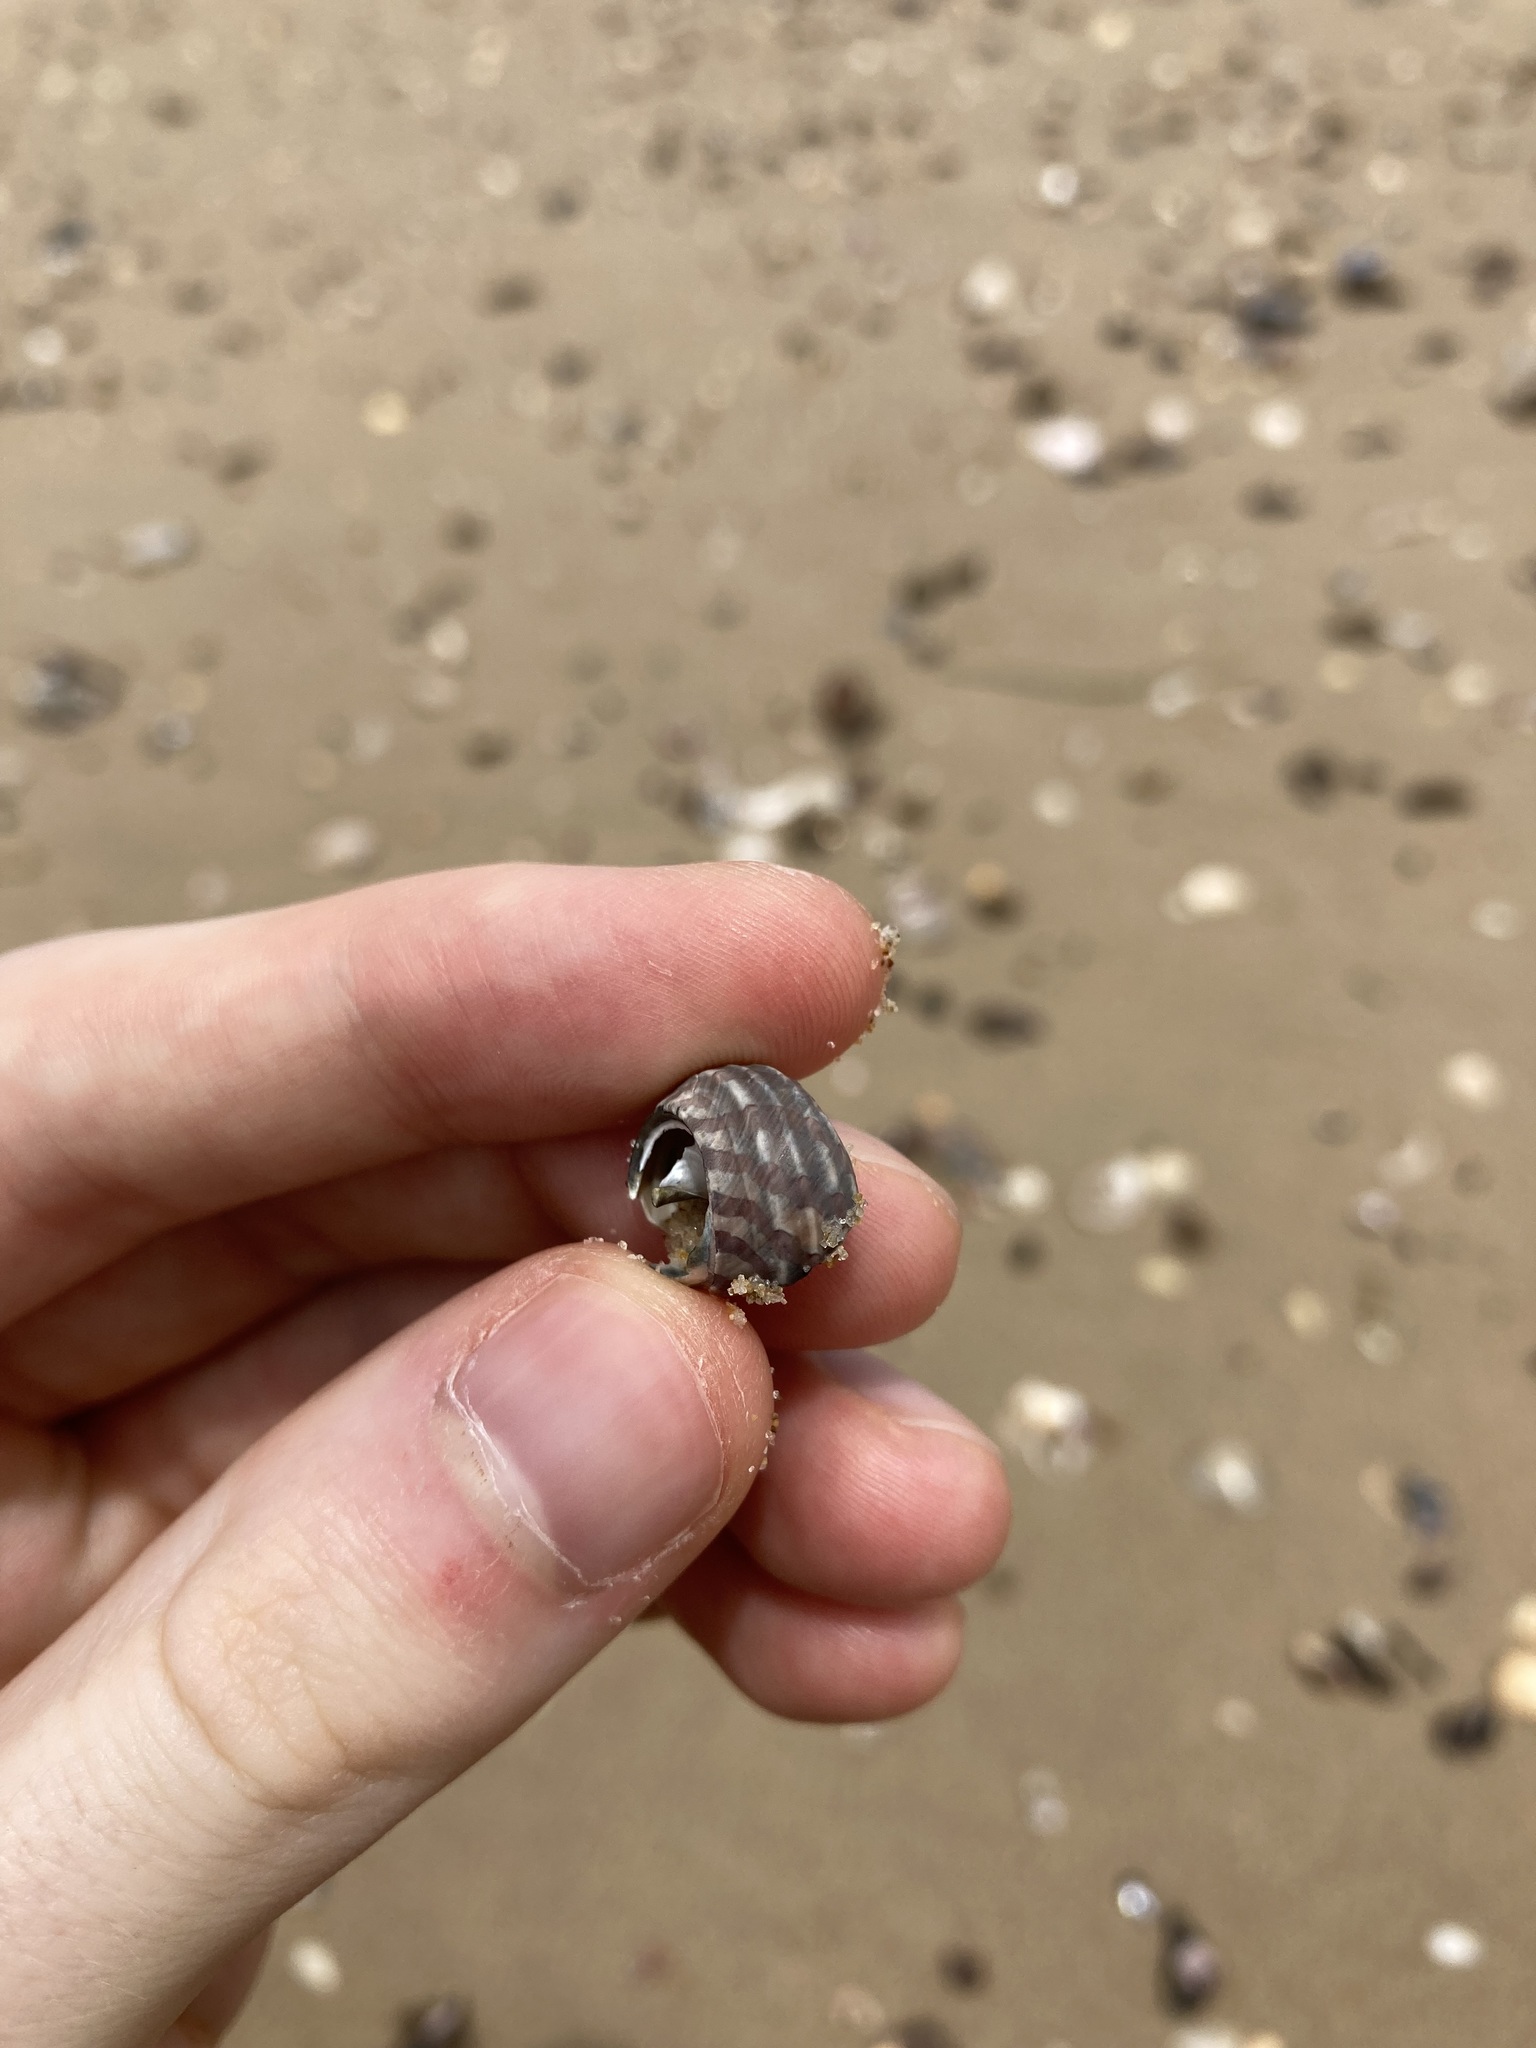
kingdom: Animalia
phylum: Mollusca
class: Gastropoda
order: Trochida
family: Trochidae
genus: Austrocochlea
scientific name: Austrocochlea porcata
